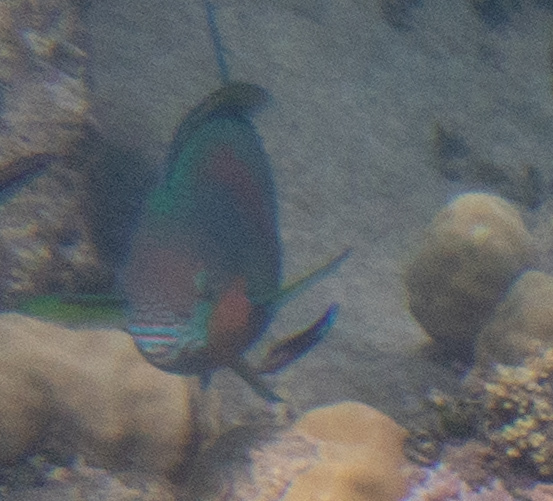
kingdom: Animalia
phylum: Chordata
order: Perciformes
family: Scaridae
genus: Scarus
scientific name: Scarus rivulatus
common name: Surf parrotfish
